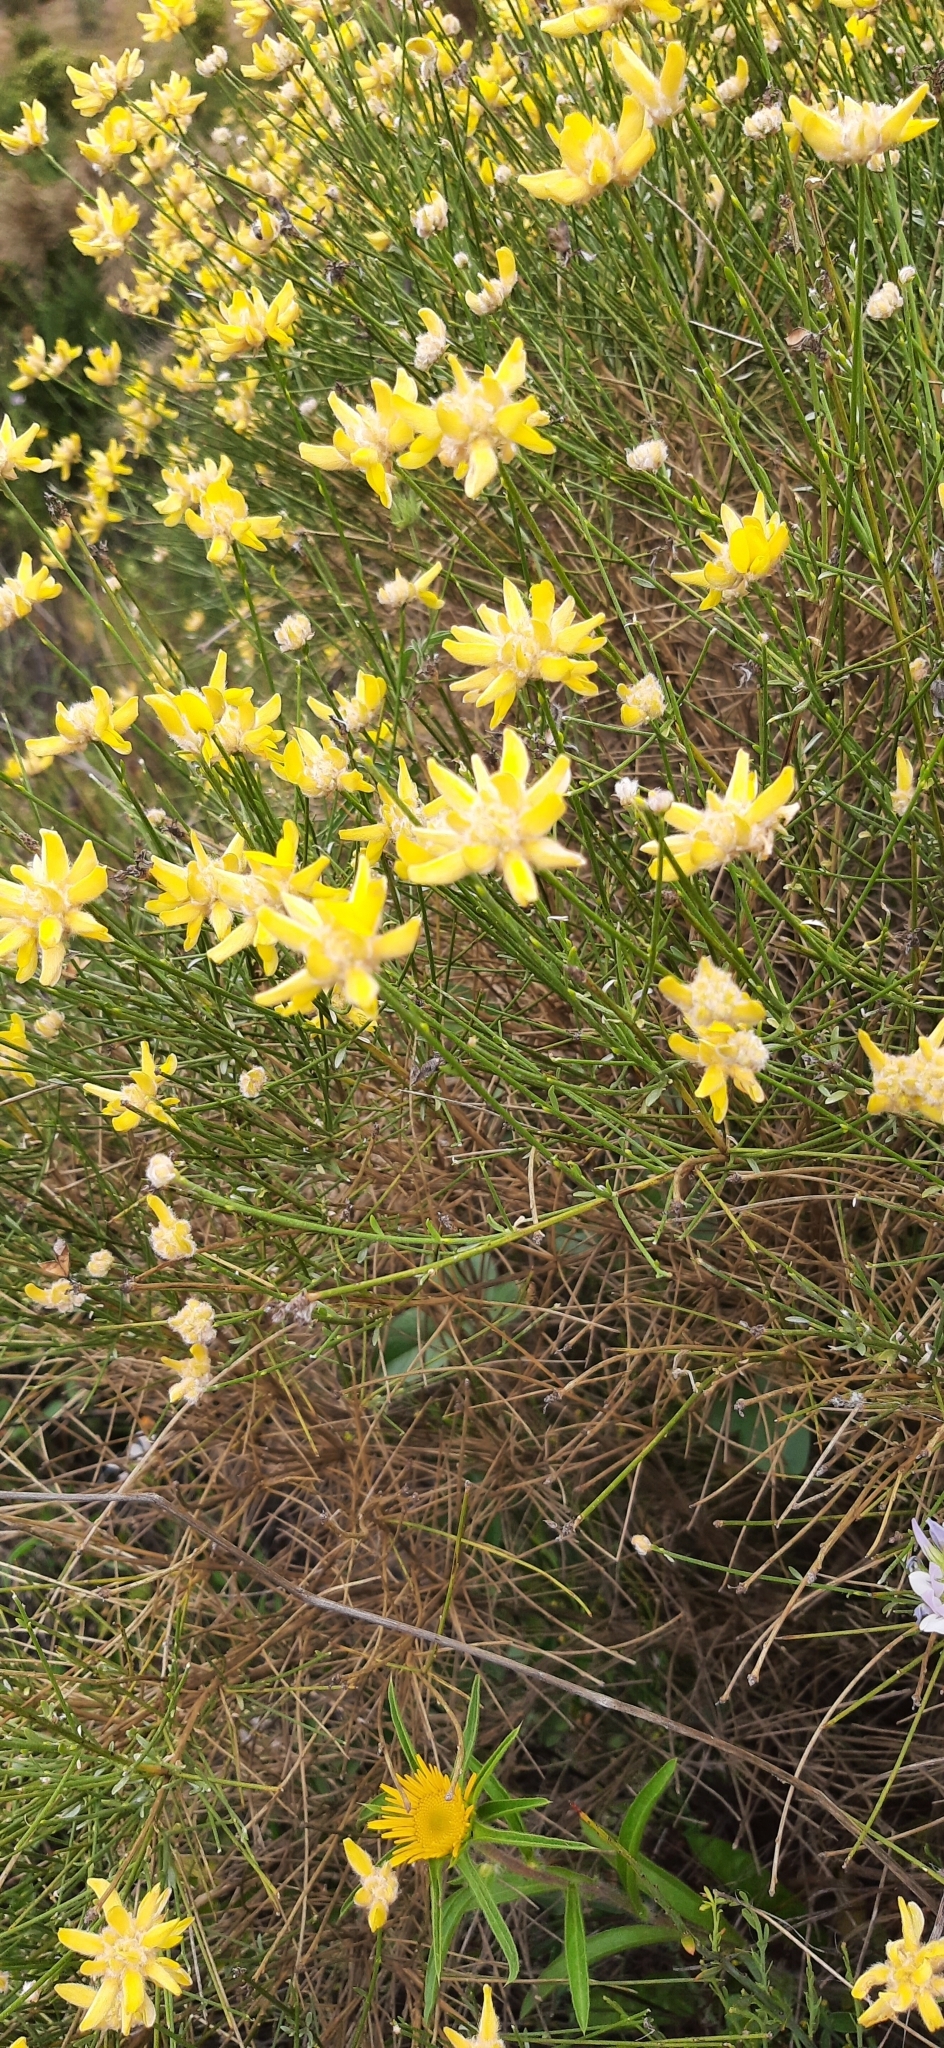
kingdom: Plantae
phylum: Tracheophyta
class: Magnoliopsida
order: Fabales
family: Fabaceae
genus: Genista
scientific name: Genista umbellata
